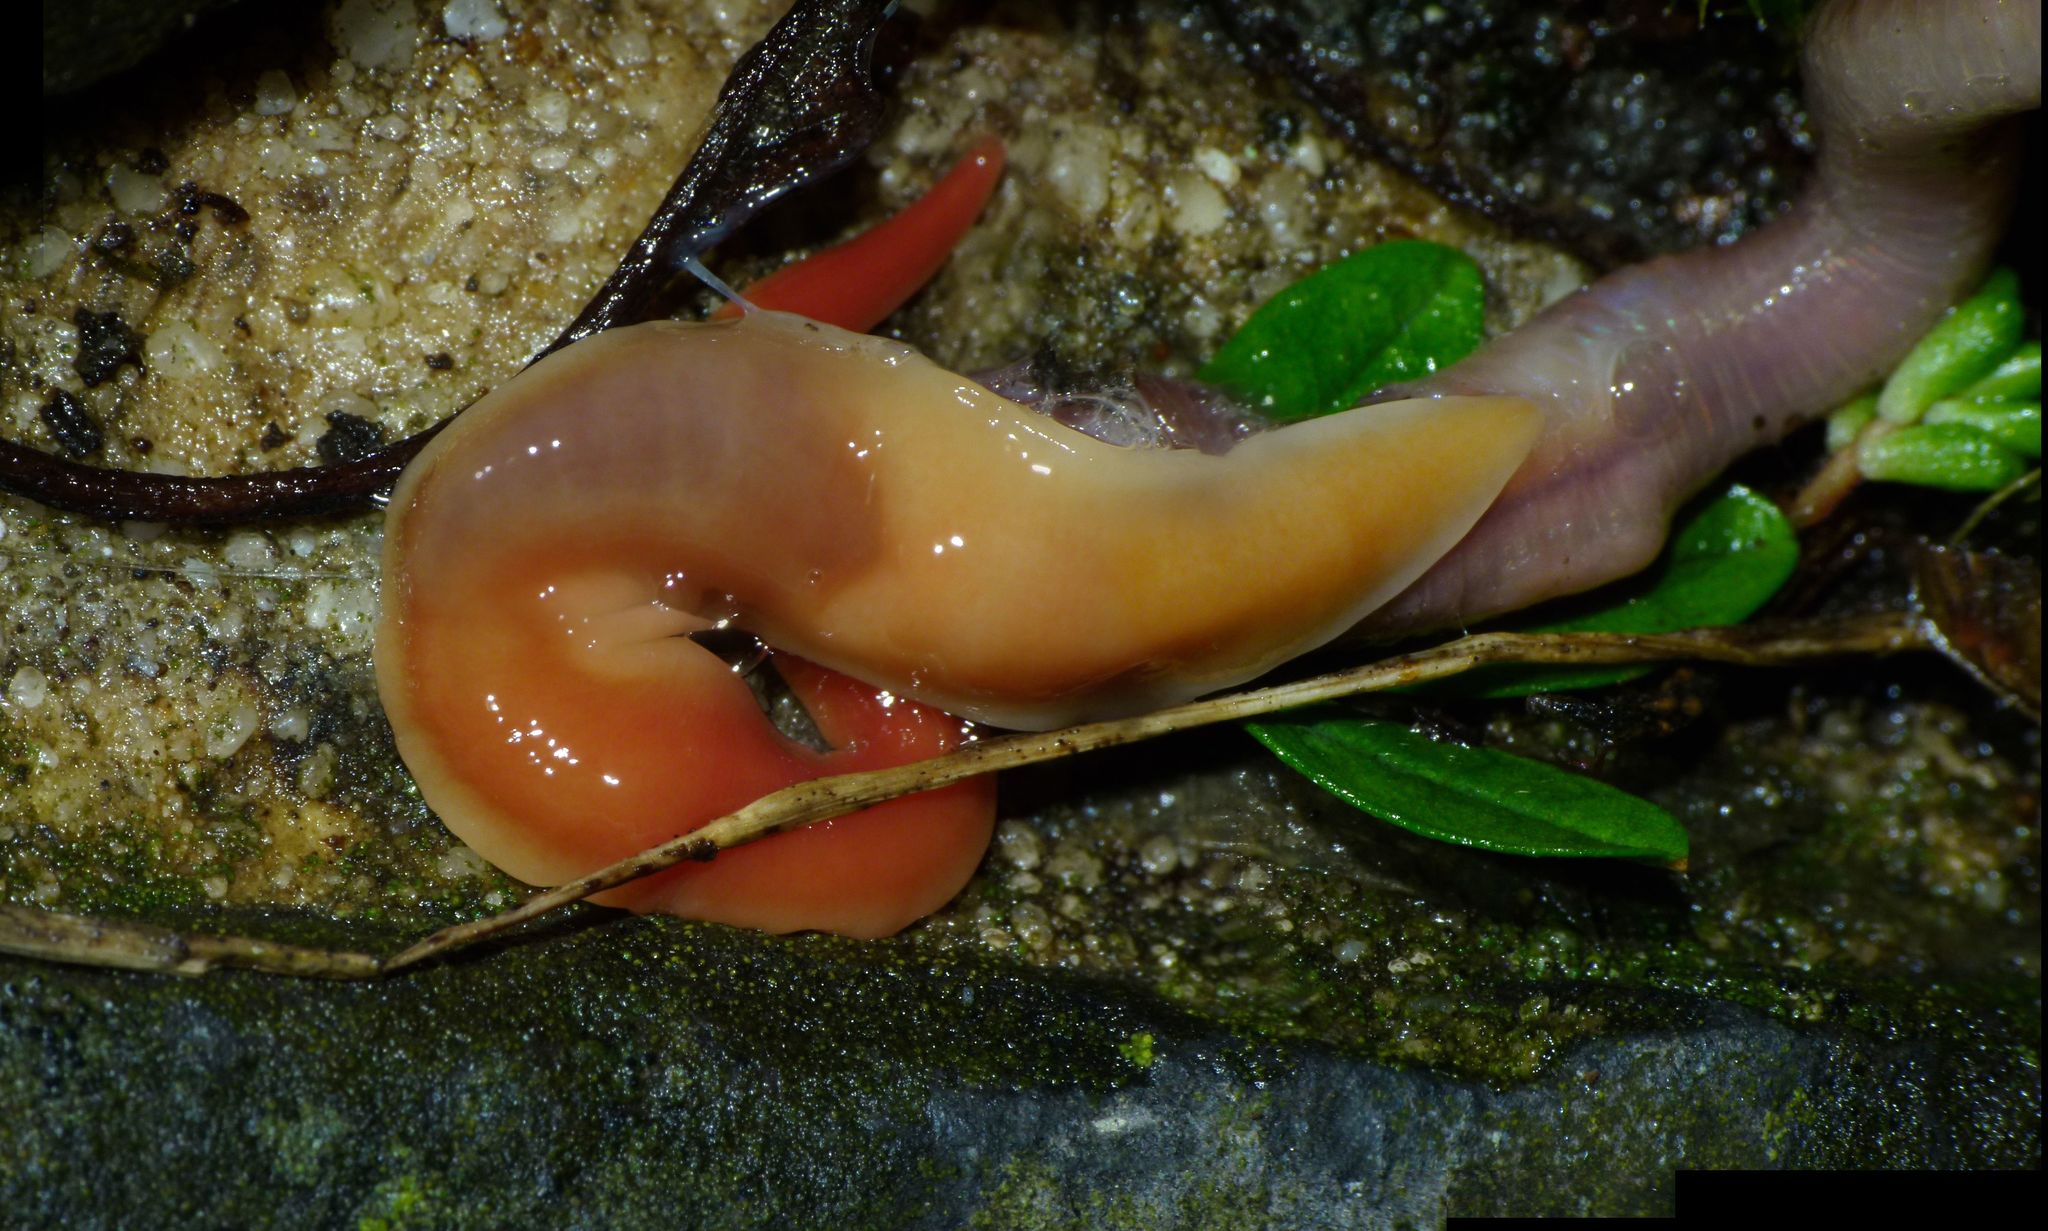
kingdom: Animalia
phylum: Platyhelminthes
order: Tricladida
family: Geoplanidae
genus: Australoplana
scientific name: Australoplana sanguinea
